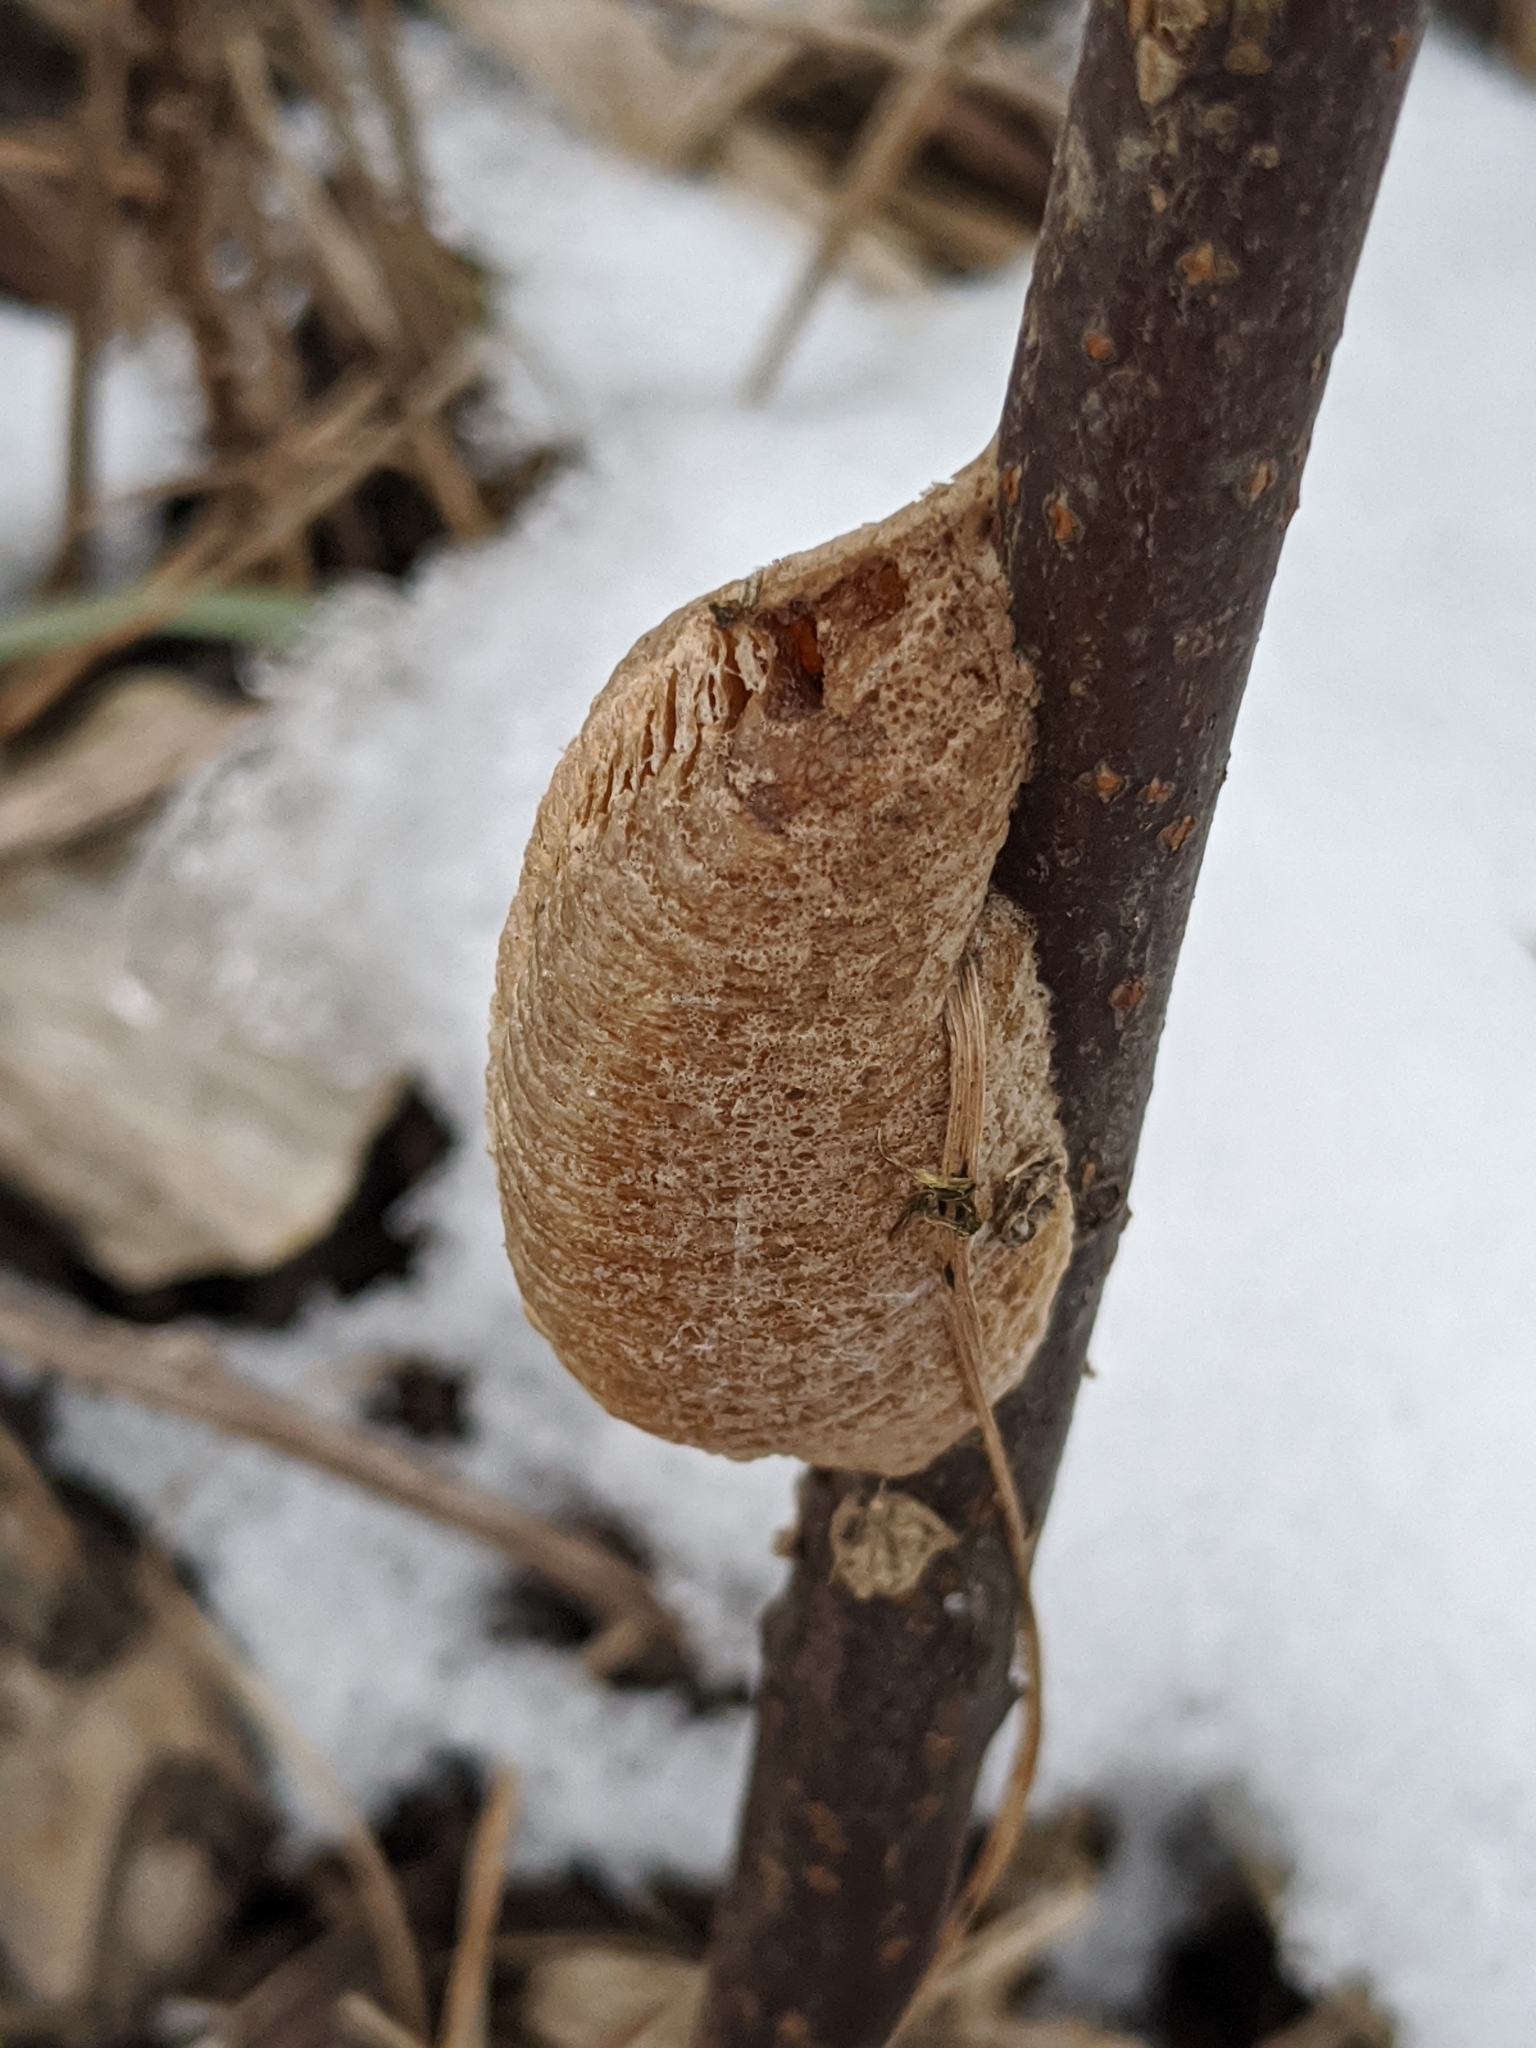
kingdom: Animalia
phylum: Arthropoda
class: Insecta
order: Mantodea
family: Mantidae
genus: Mantis
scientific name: Mantis religiosa
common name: Praying mantis
